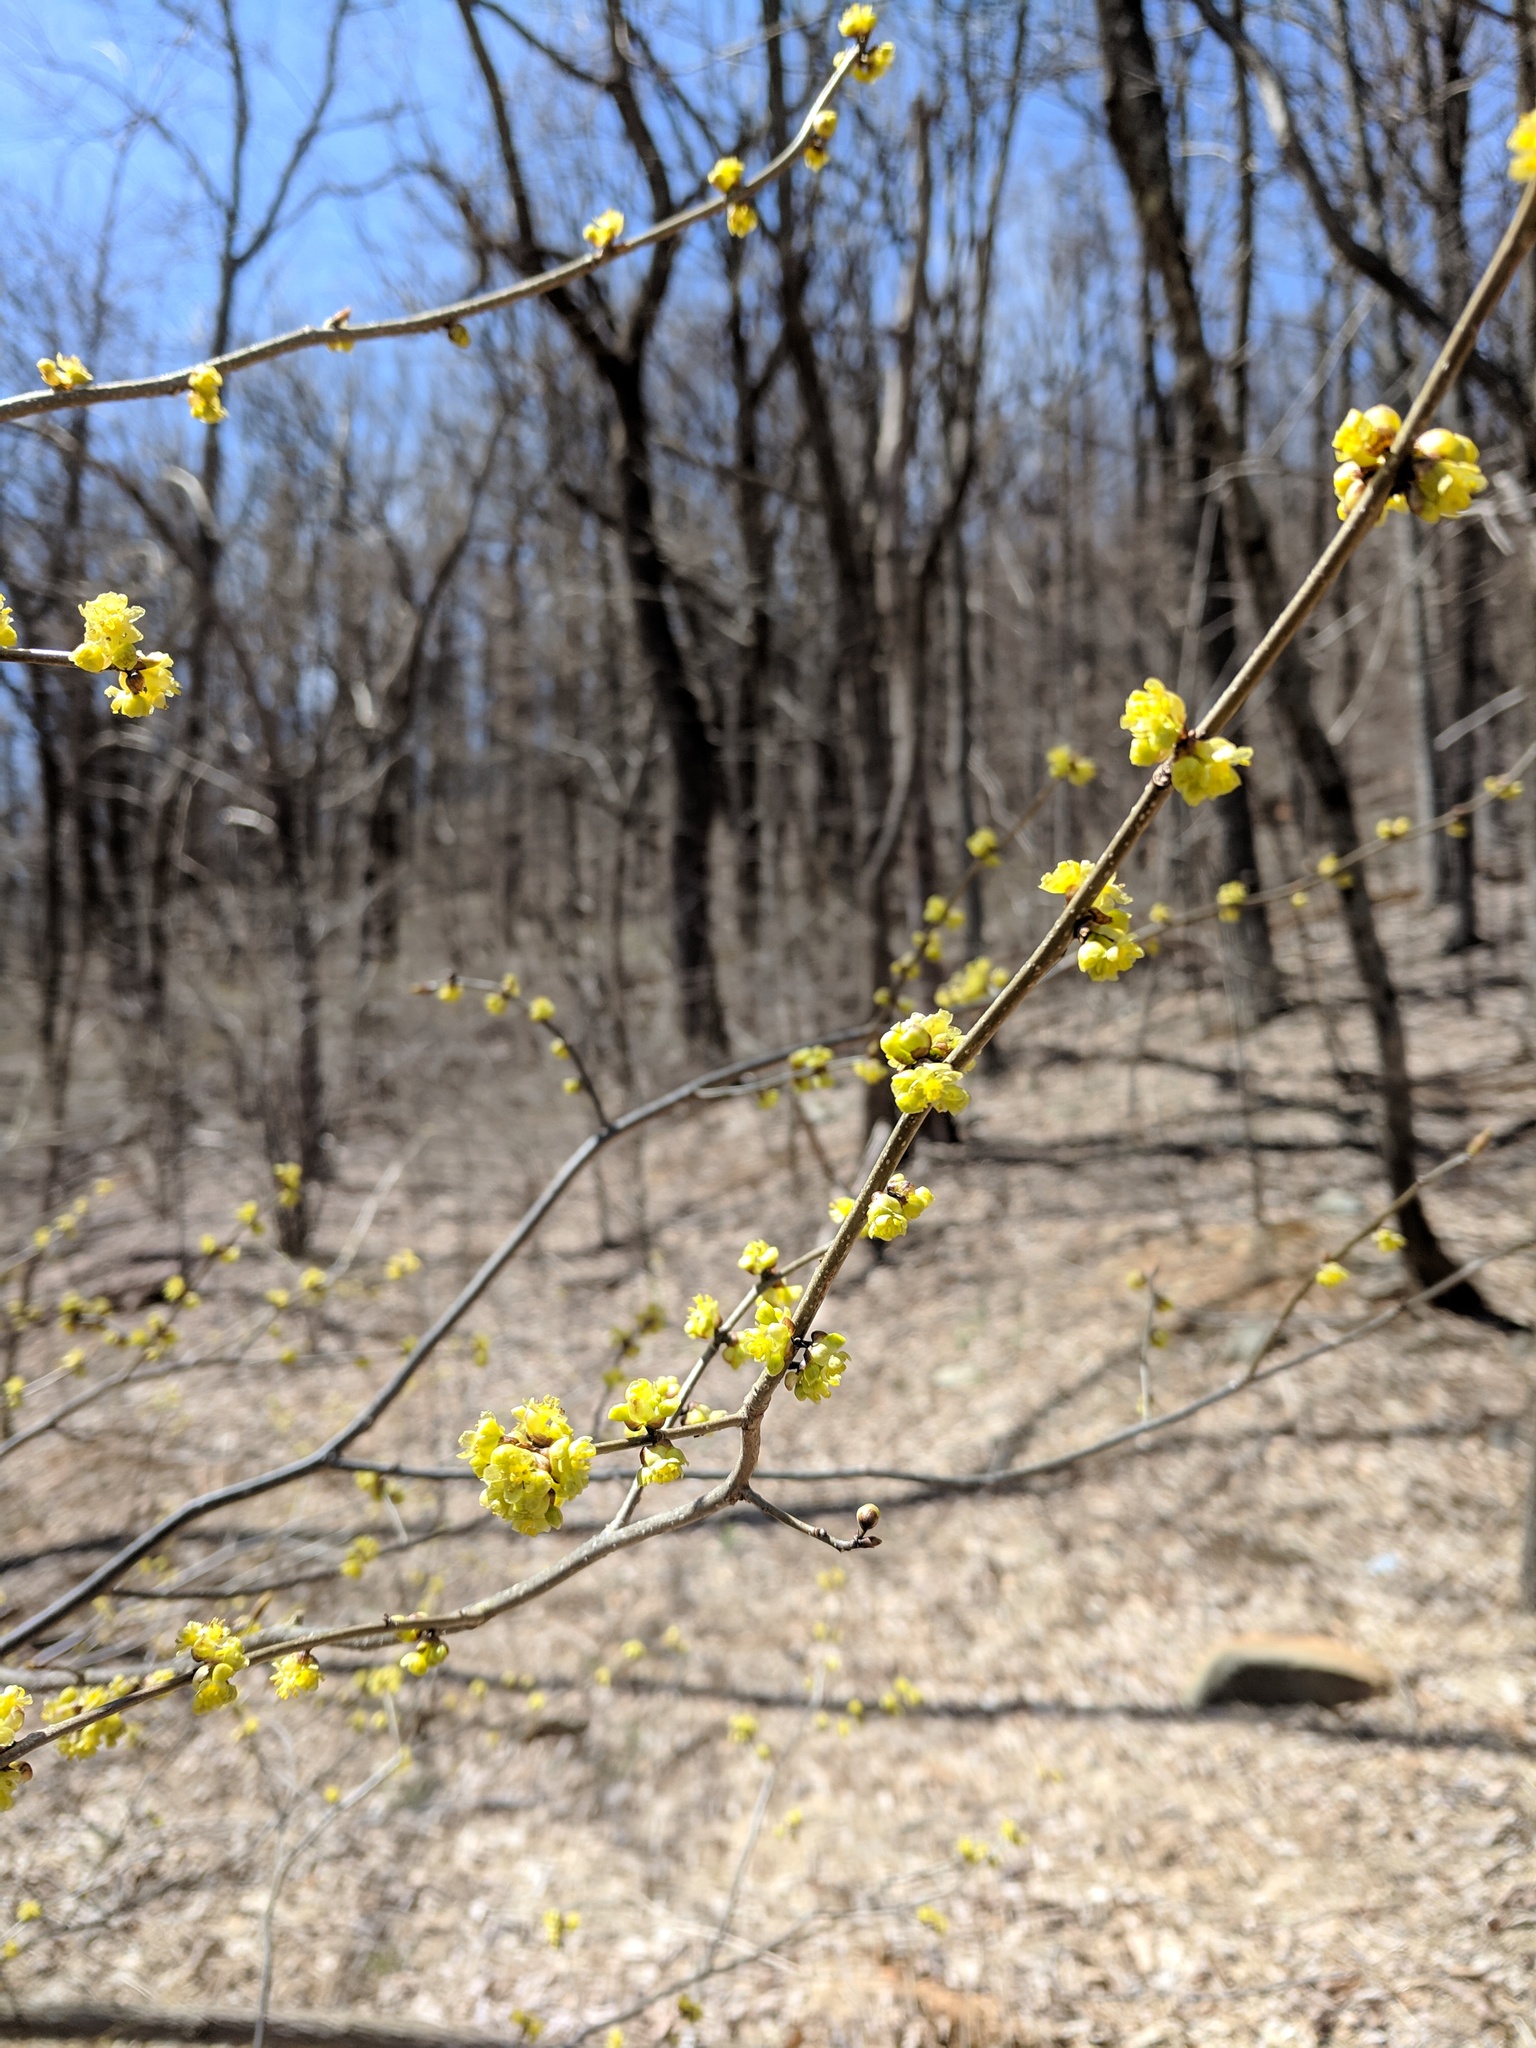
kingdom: Plantae
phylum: Tracheophyta
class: Magnoliopsida
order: Laurales
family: Lauraceae
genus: Lindera
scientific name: Lindera benzoin
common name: Spicebush
